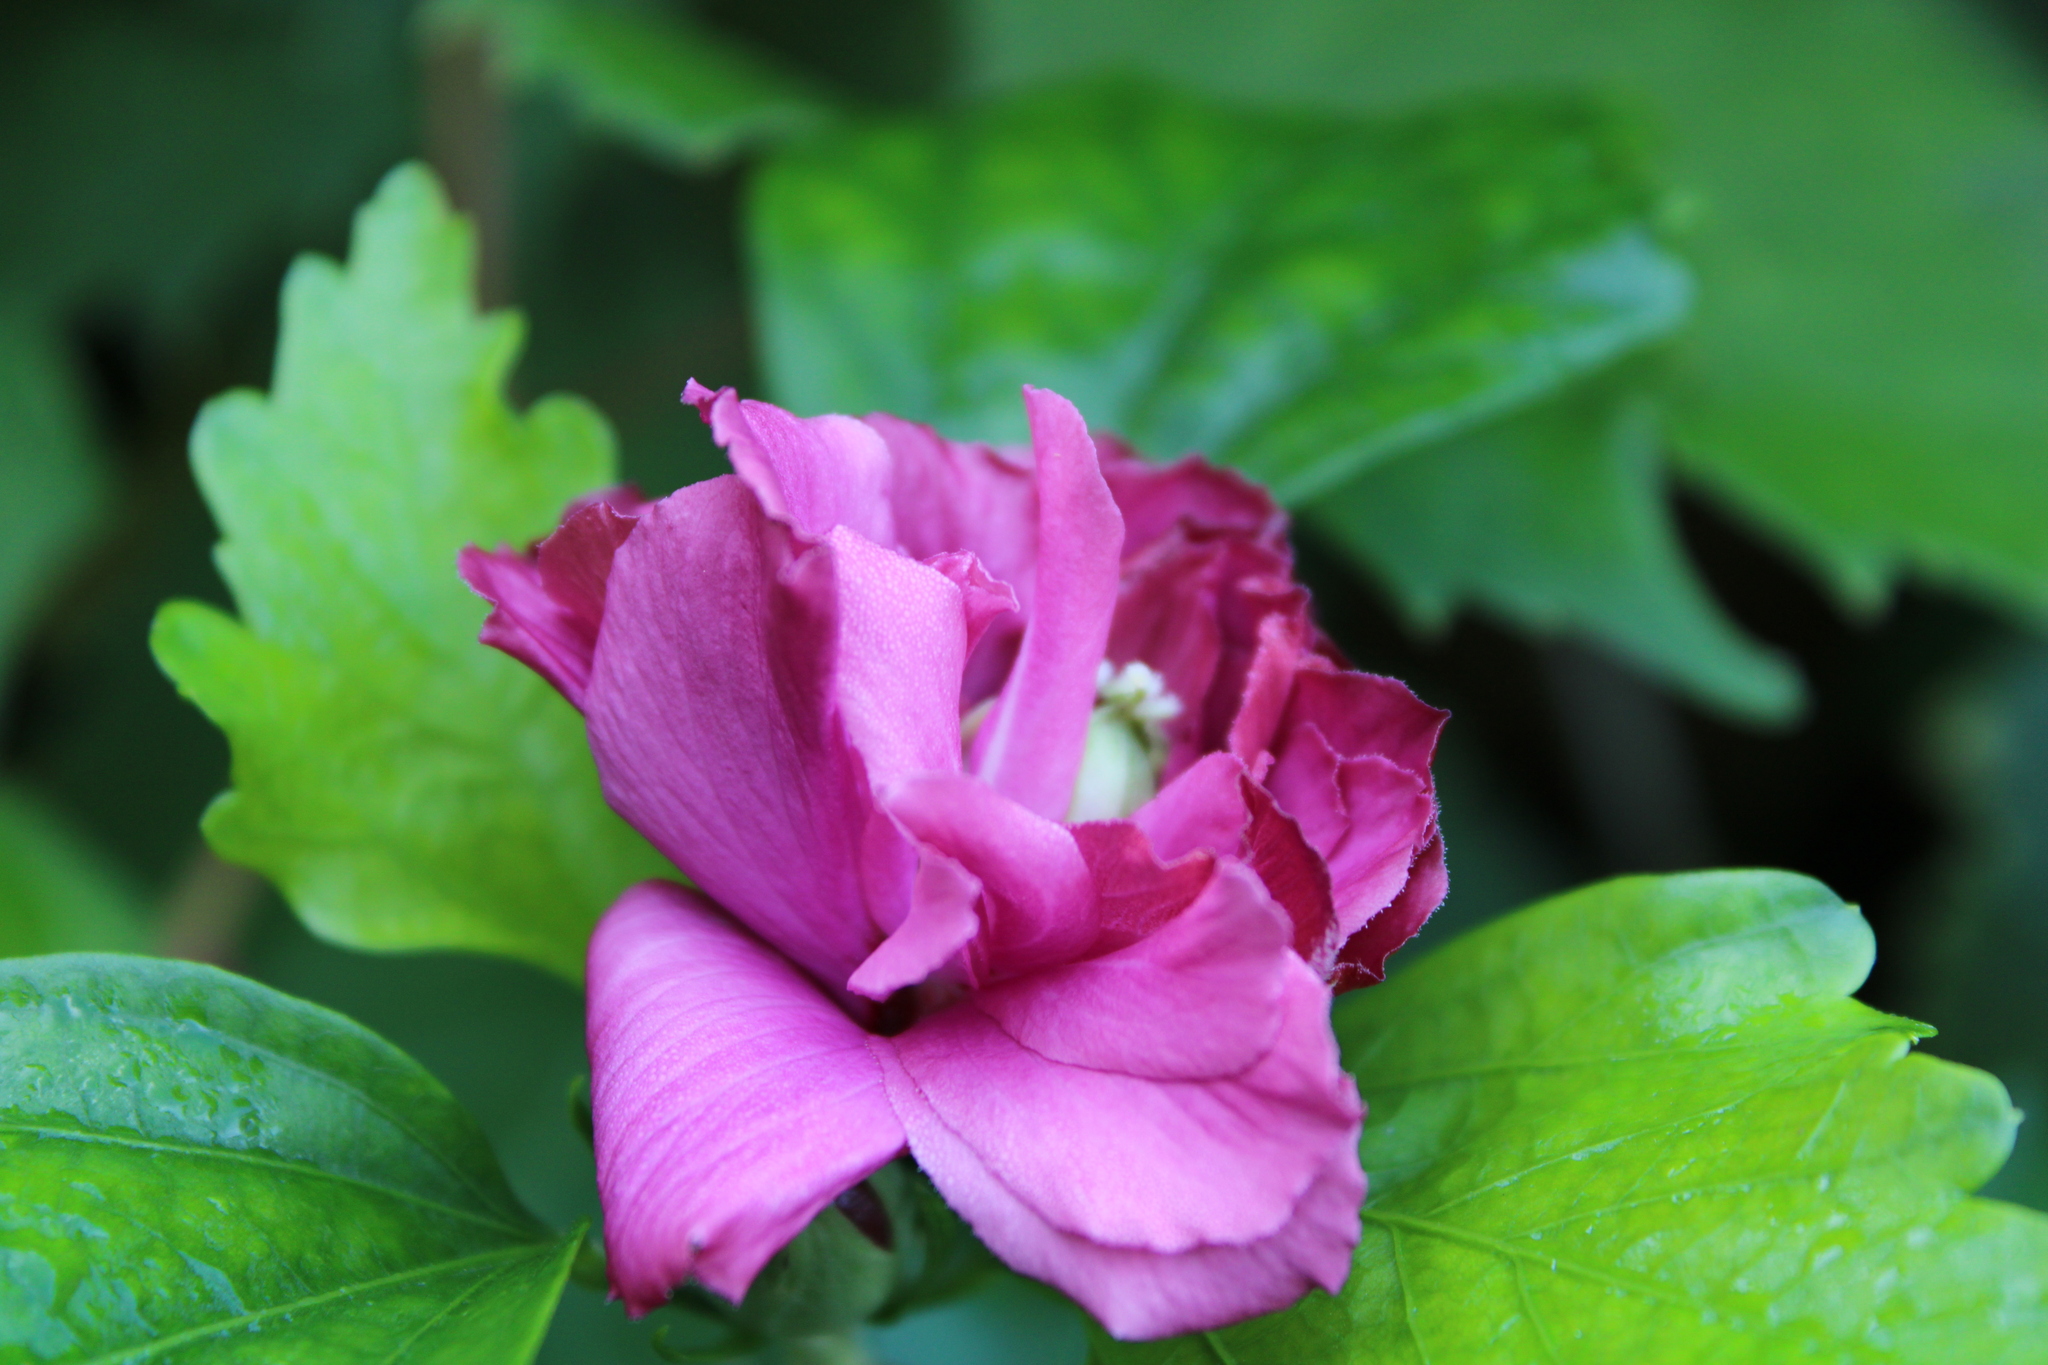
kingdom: Plantae
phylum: Tracheophyta
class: Magnoliopsida
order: Malvales
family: Malvaceae
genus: Hibiscus
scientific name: Hibiscus syriacus
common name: Syrian ketmia
